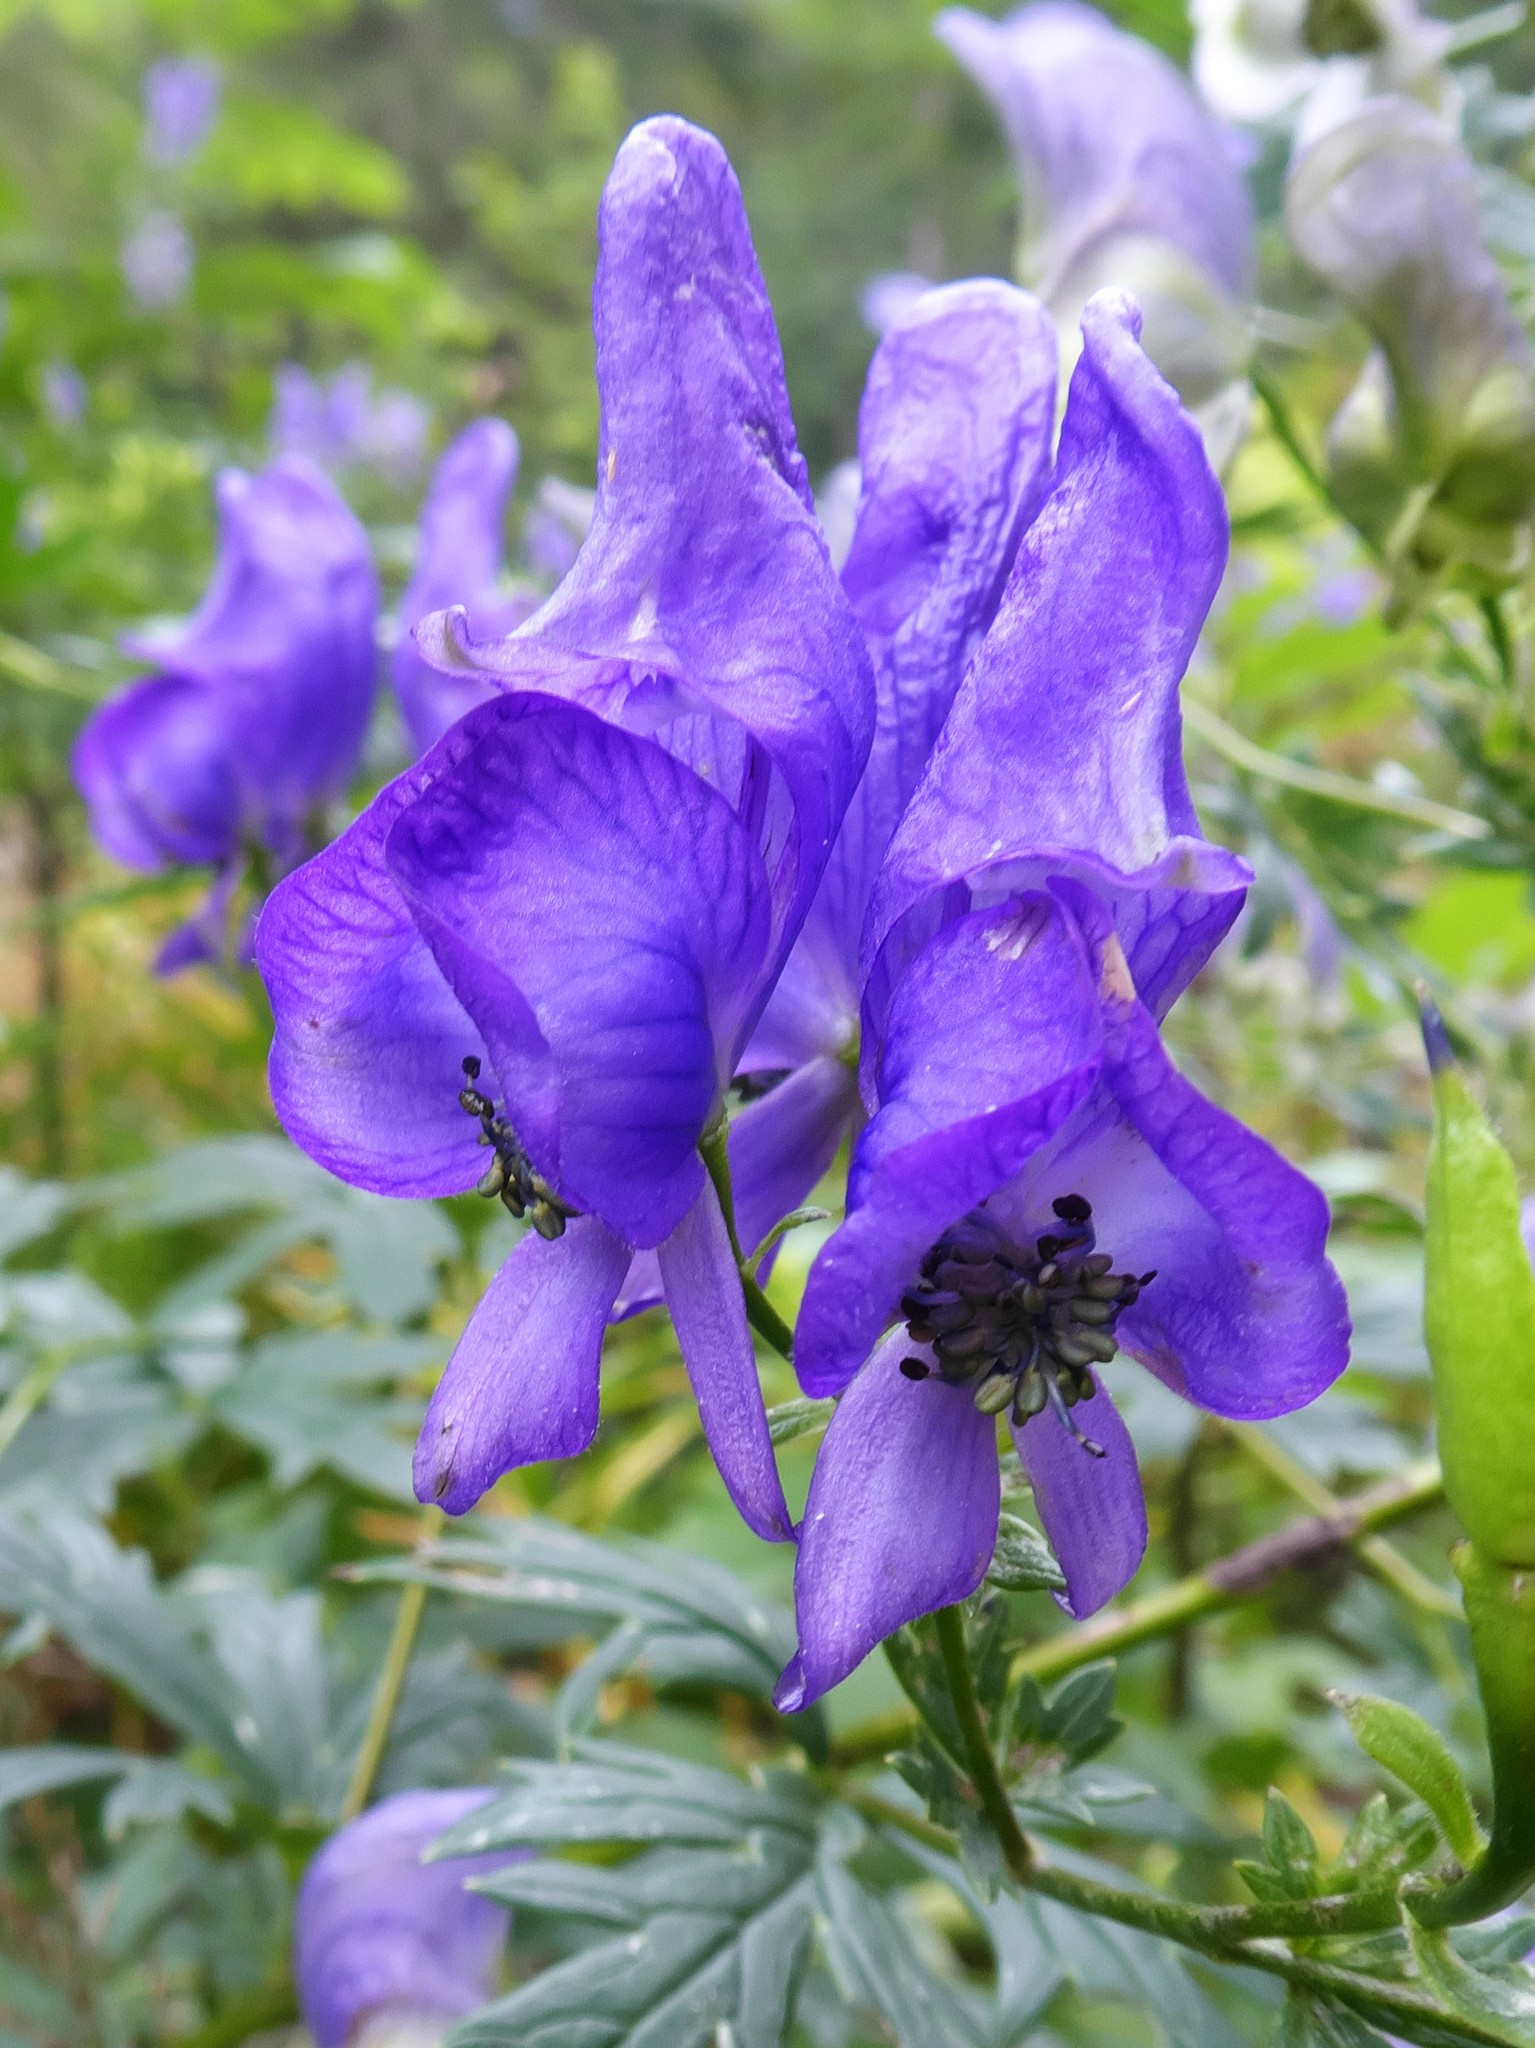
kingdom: Plantae
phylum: Tracheophyta
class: Magnoliopsida
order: Ranunculales
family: Ranunculaceae
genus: Aconitum
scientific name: Aconitum variegatum
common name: Manchurian monkshood
